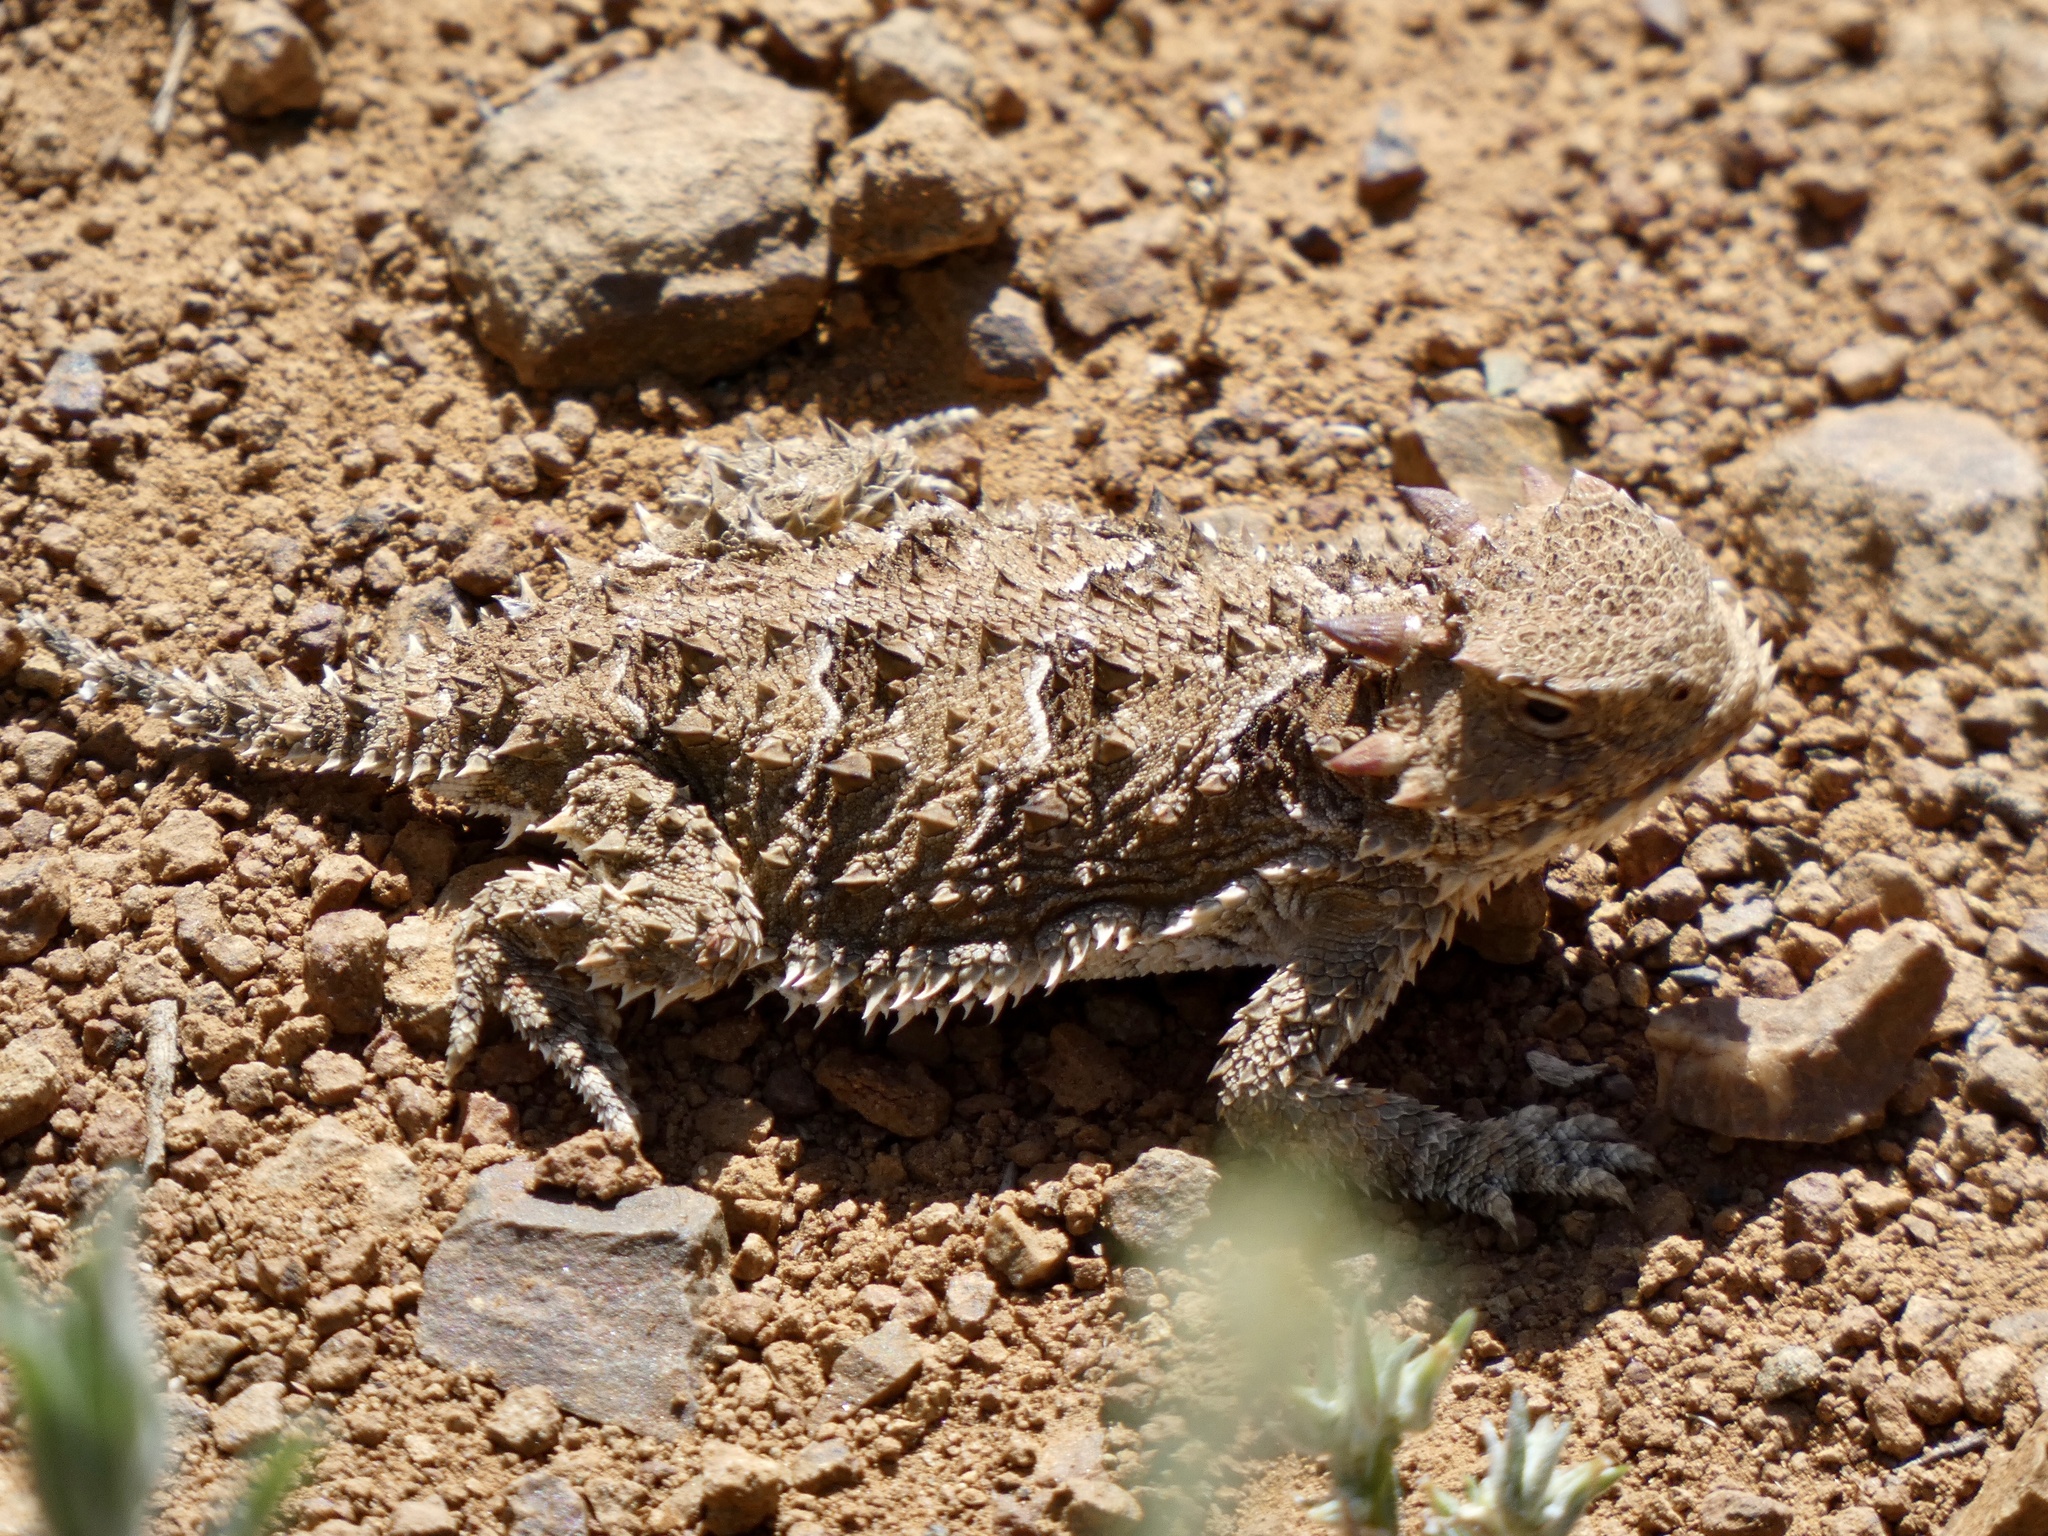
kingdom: Animalia
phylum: Chordata
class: Squamata
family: Phrynosomatidae
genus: Phrynosoma
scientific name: Phrynosoma blainvillii
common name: San diego horned lizard
